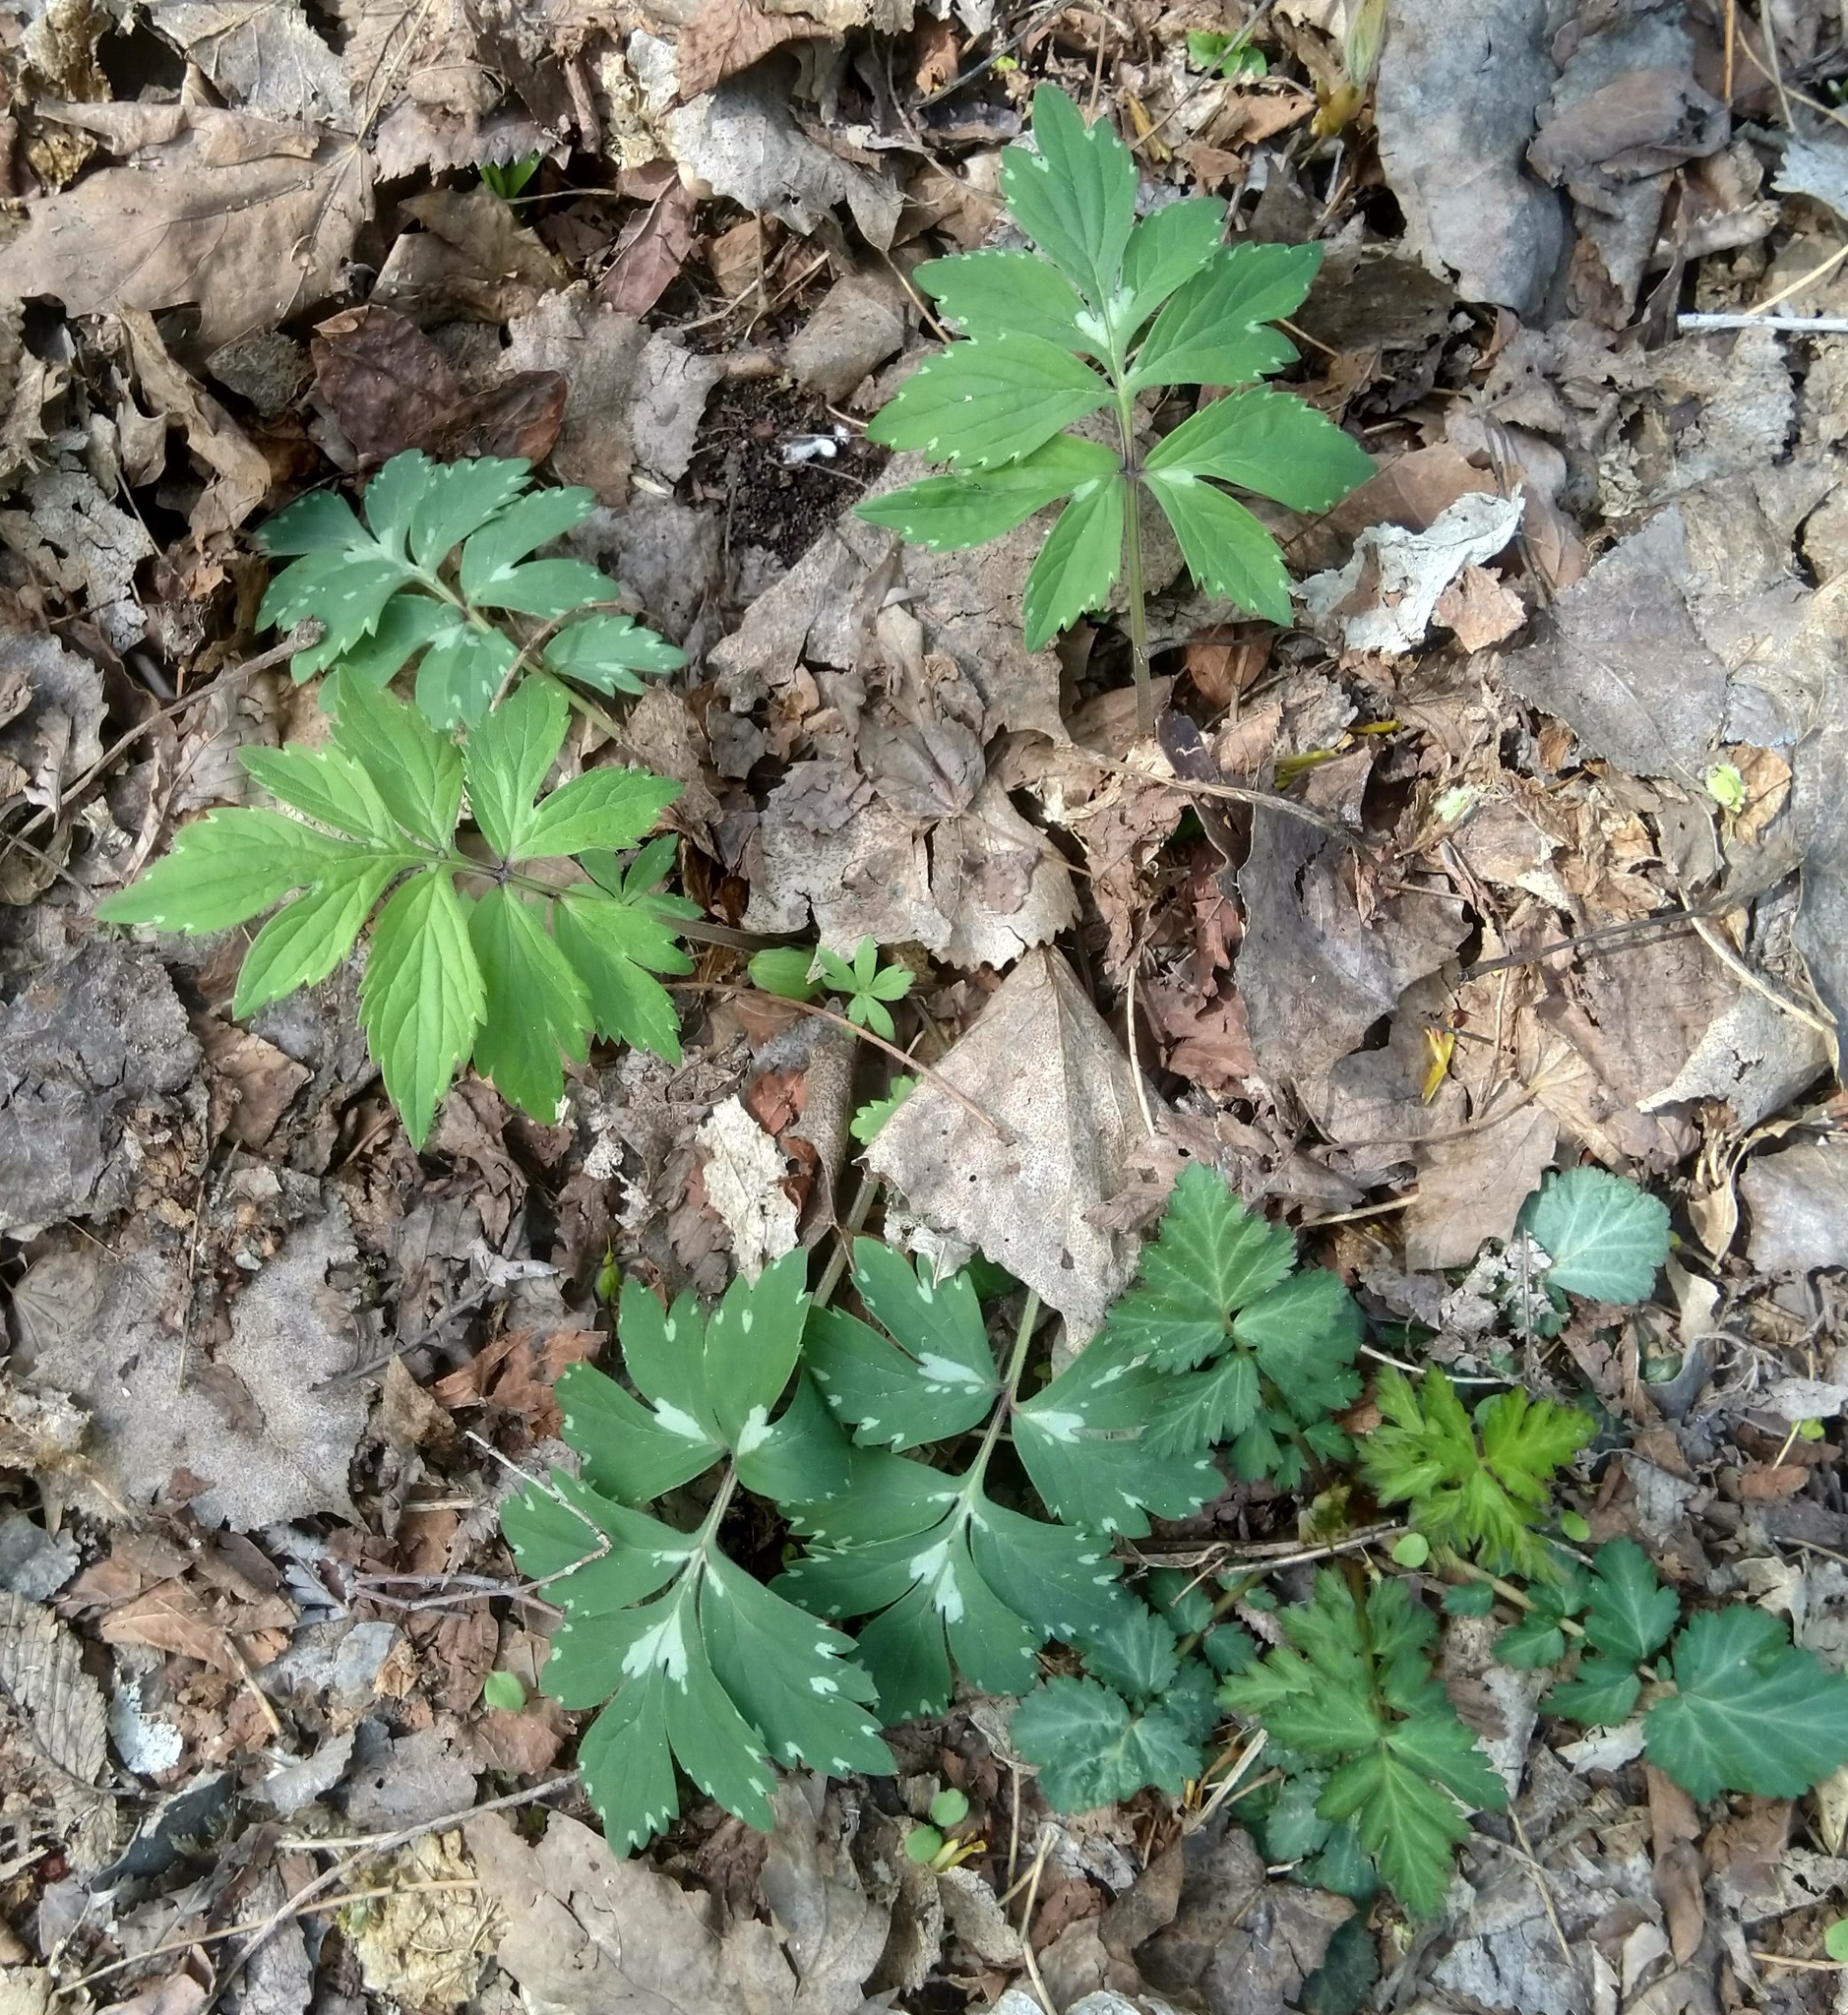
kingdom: Plantae
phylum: Tracheophyta
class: Magnoliopsida
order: Boraginales
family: Hydrophyllaceae
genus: Hydrophyllum
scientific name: Hydrophyllum virginianum
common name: Virginia waterleaf
